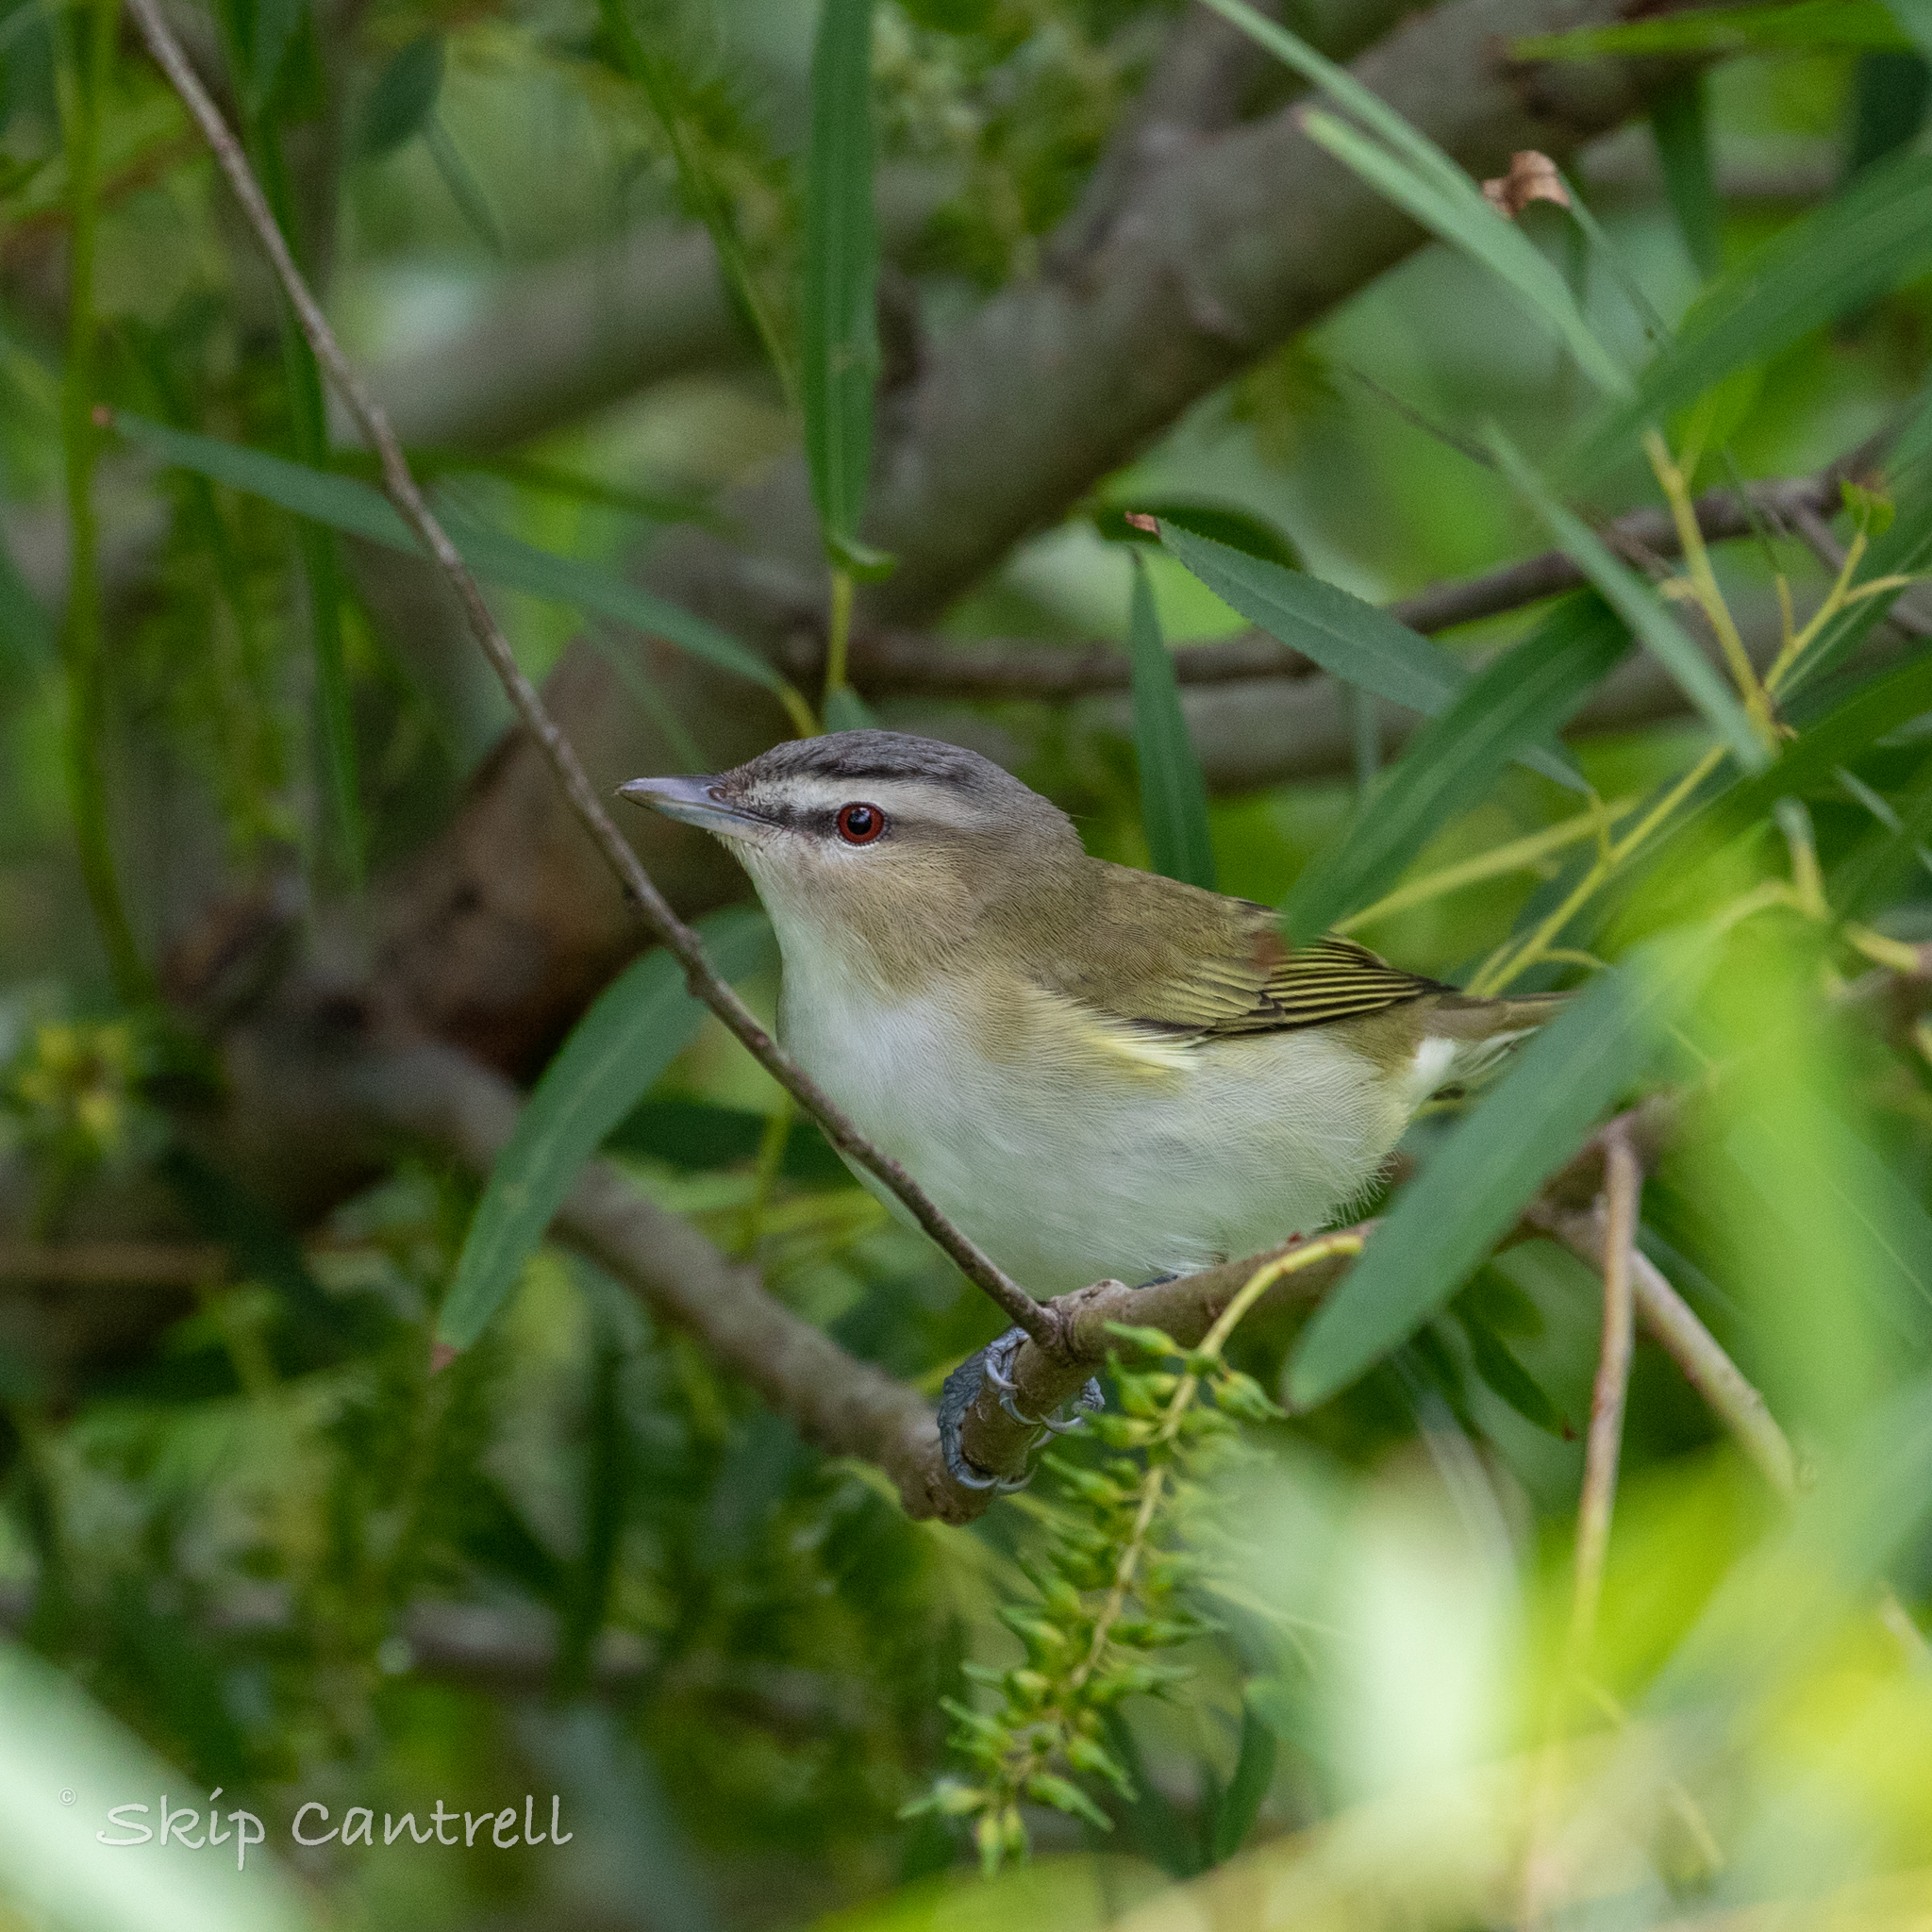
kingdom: Animalia
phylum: Chordata
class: Aves
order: Passeriformes
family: Vireonidae
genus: Vireo
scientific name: Vireo olivaceus
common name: Red-eyed vireo
